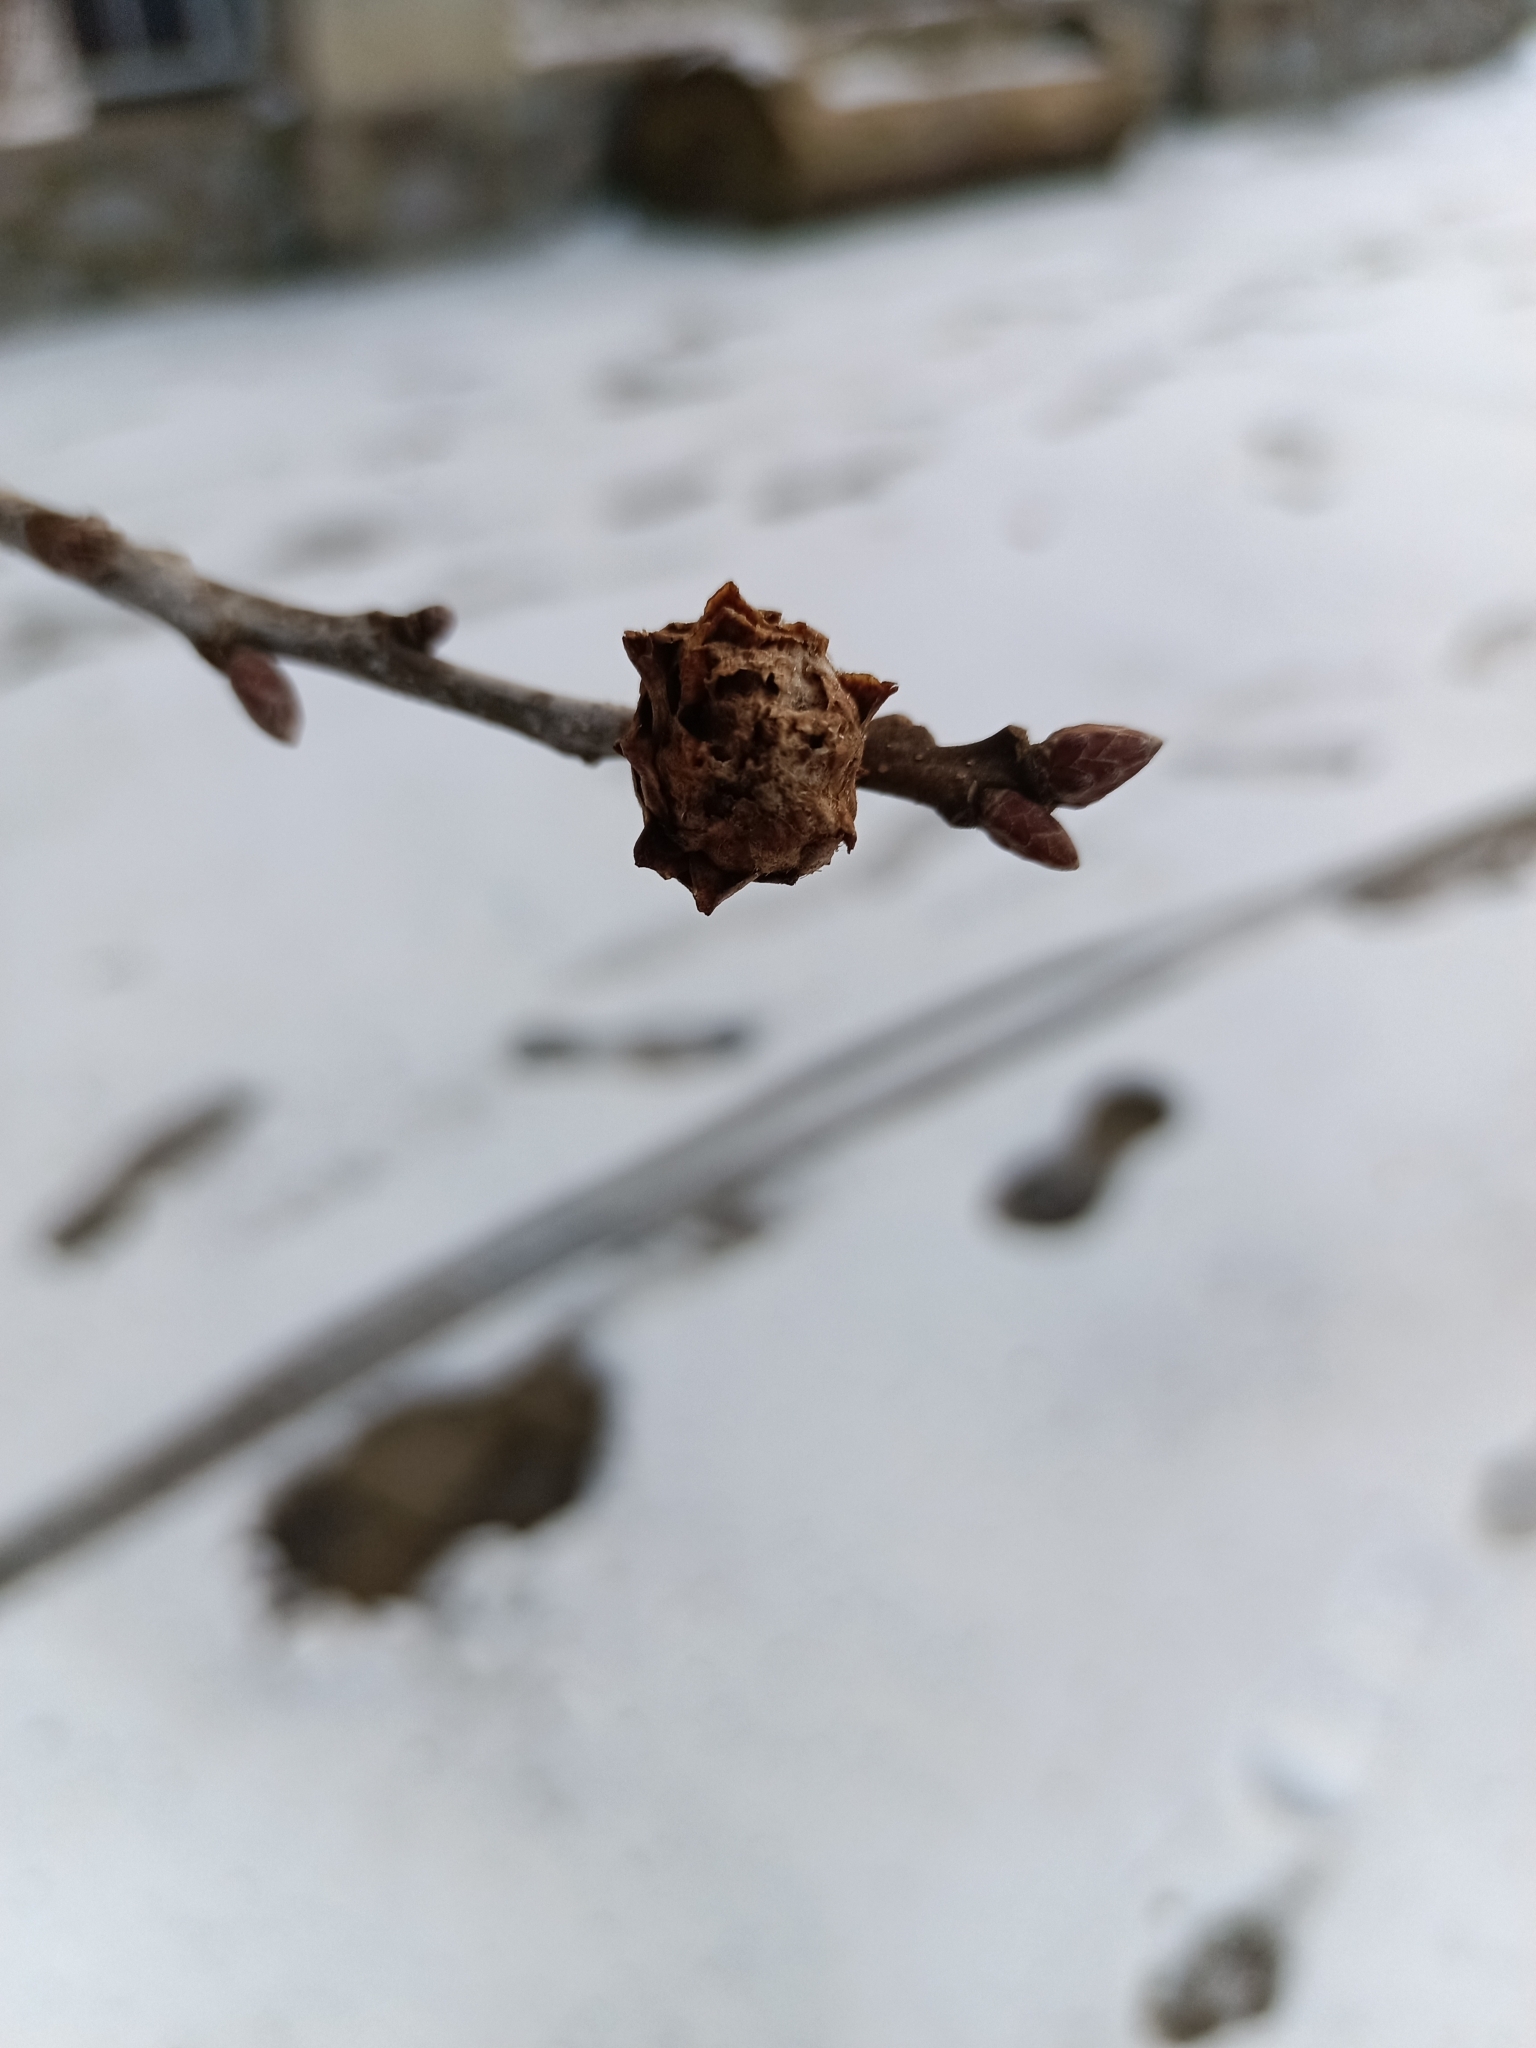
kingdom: Animalia
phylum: Arthropoda
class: Insecta
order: Hymenoptera
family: Cynipidae
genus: Andricus
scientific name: Andricus foecundatrix
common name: Artichoke gall
